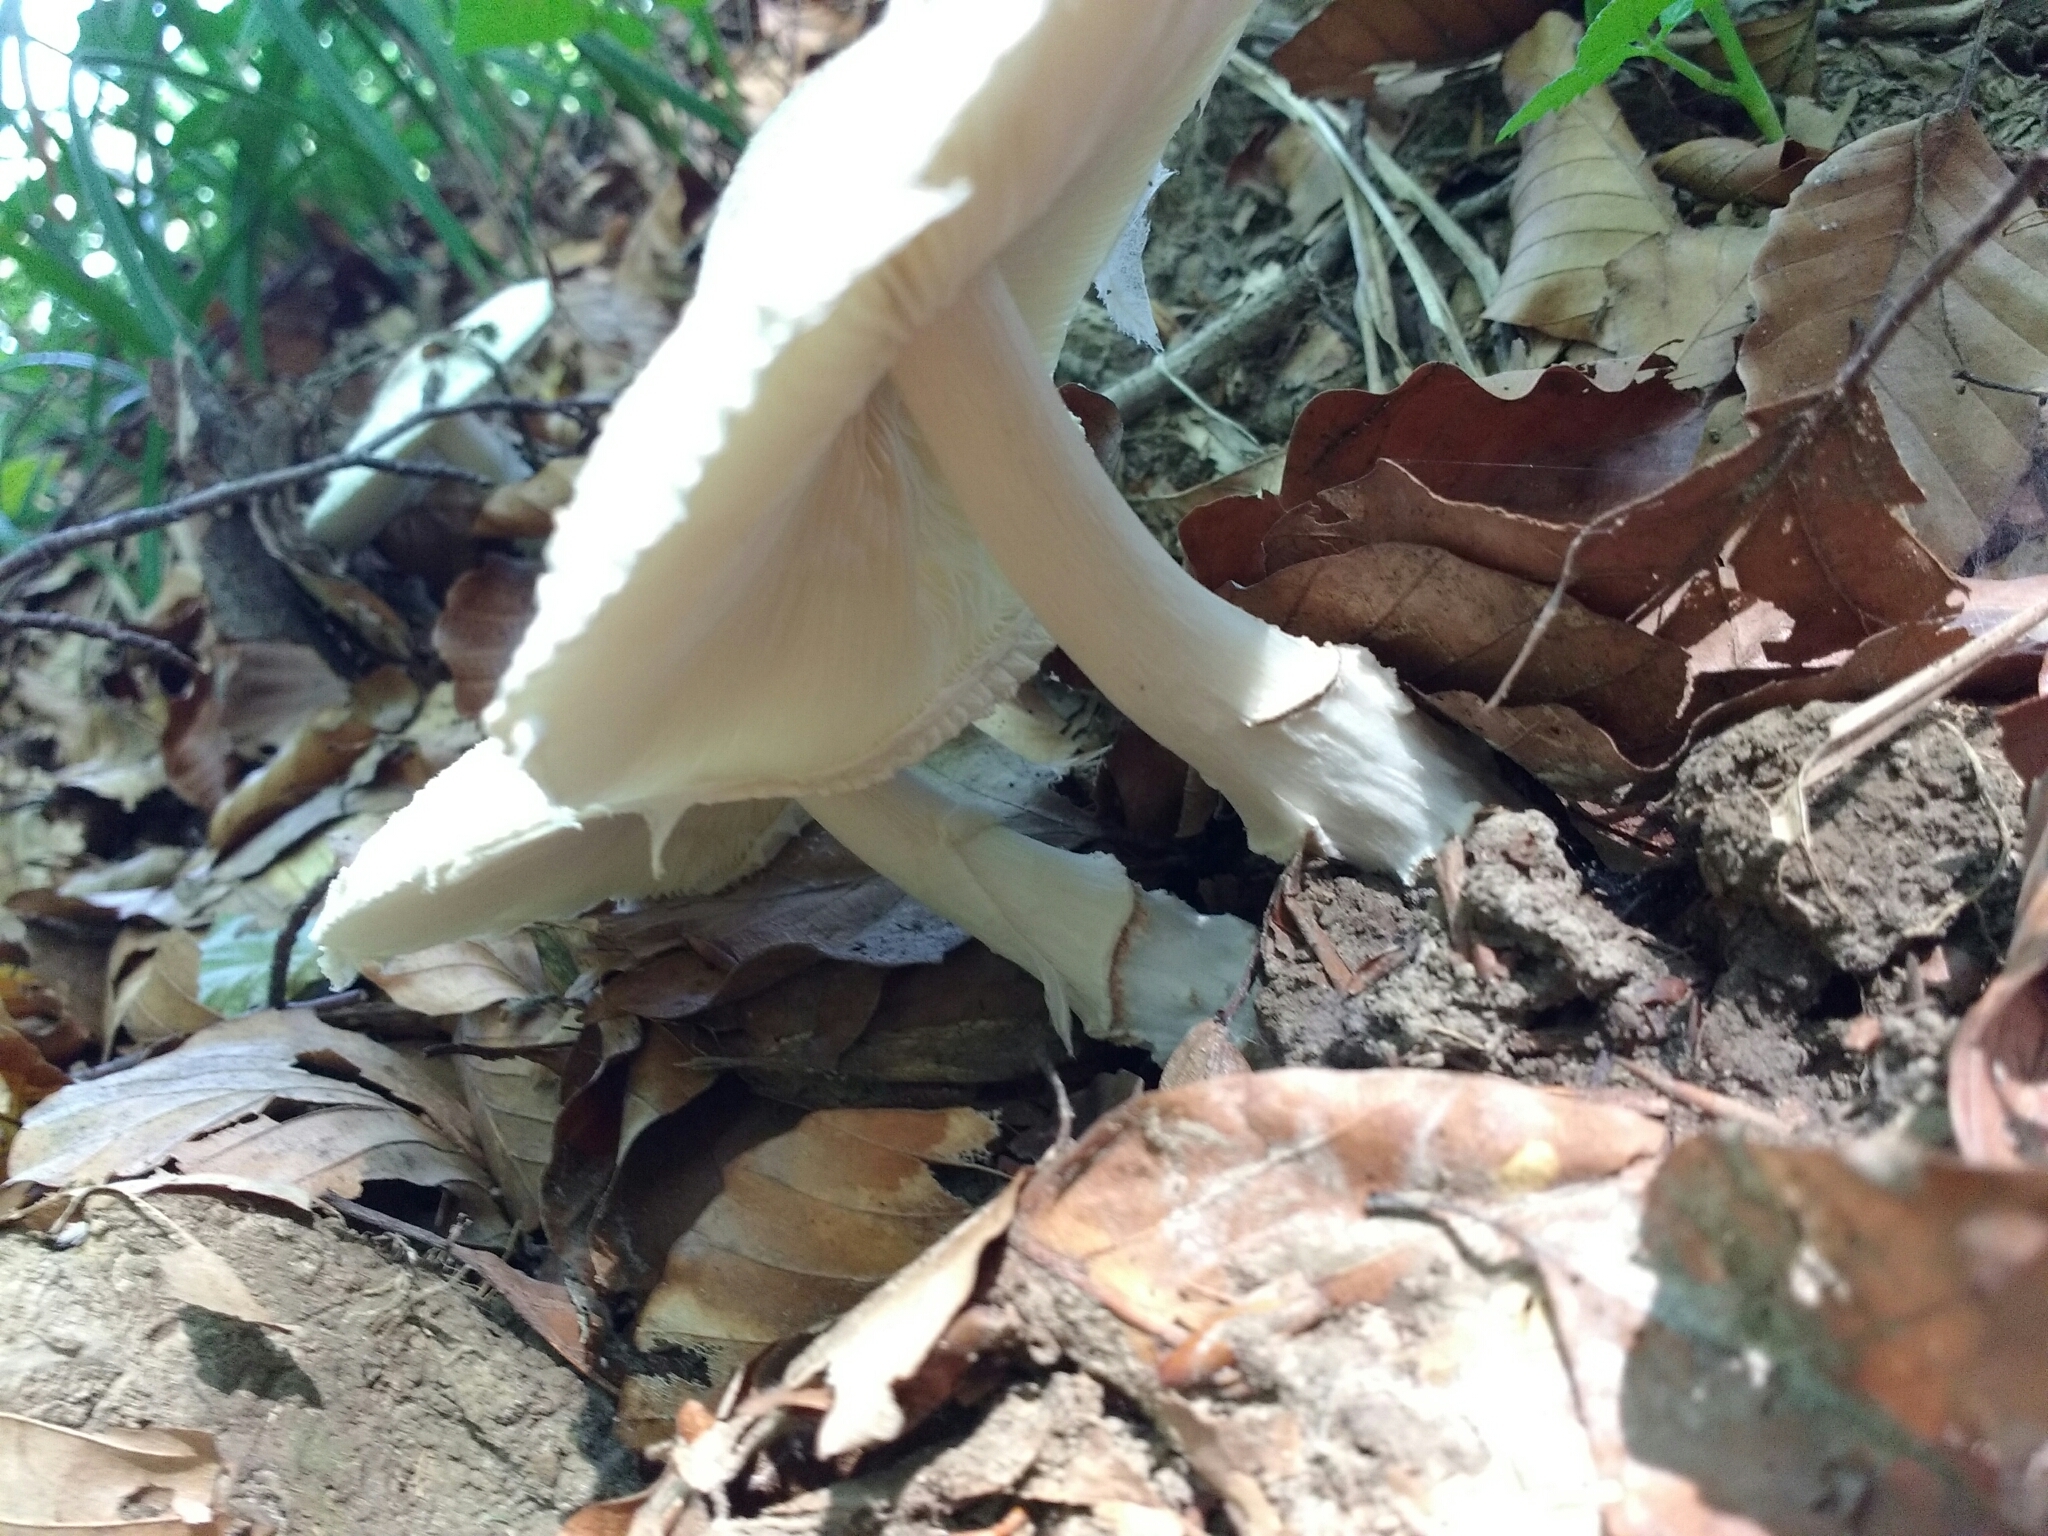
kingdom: Fungi
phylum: Basidiomycota
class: Agaricomycetes
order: Agaricales
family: Agaricaceae
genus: Lepiota
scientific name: Lepiota ignivolvata
